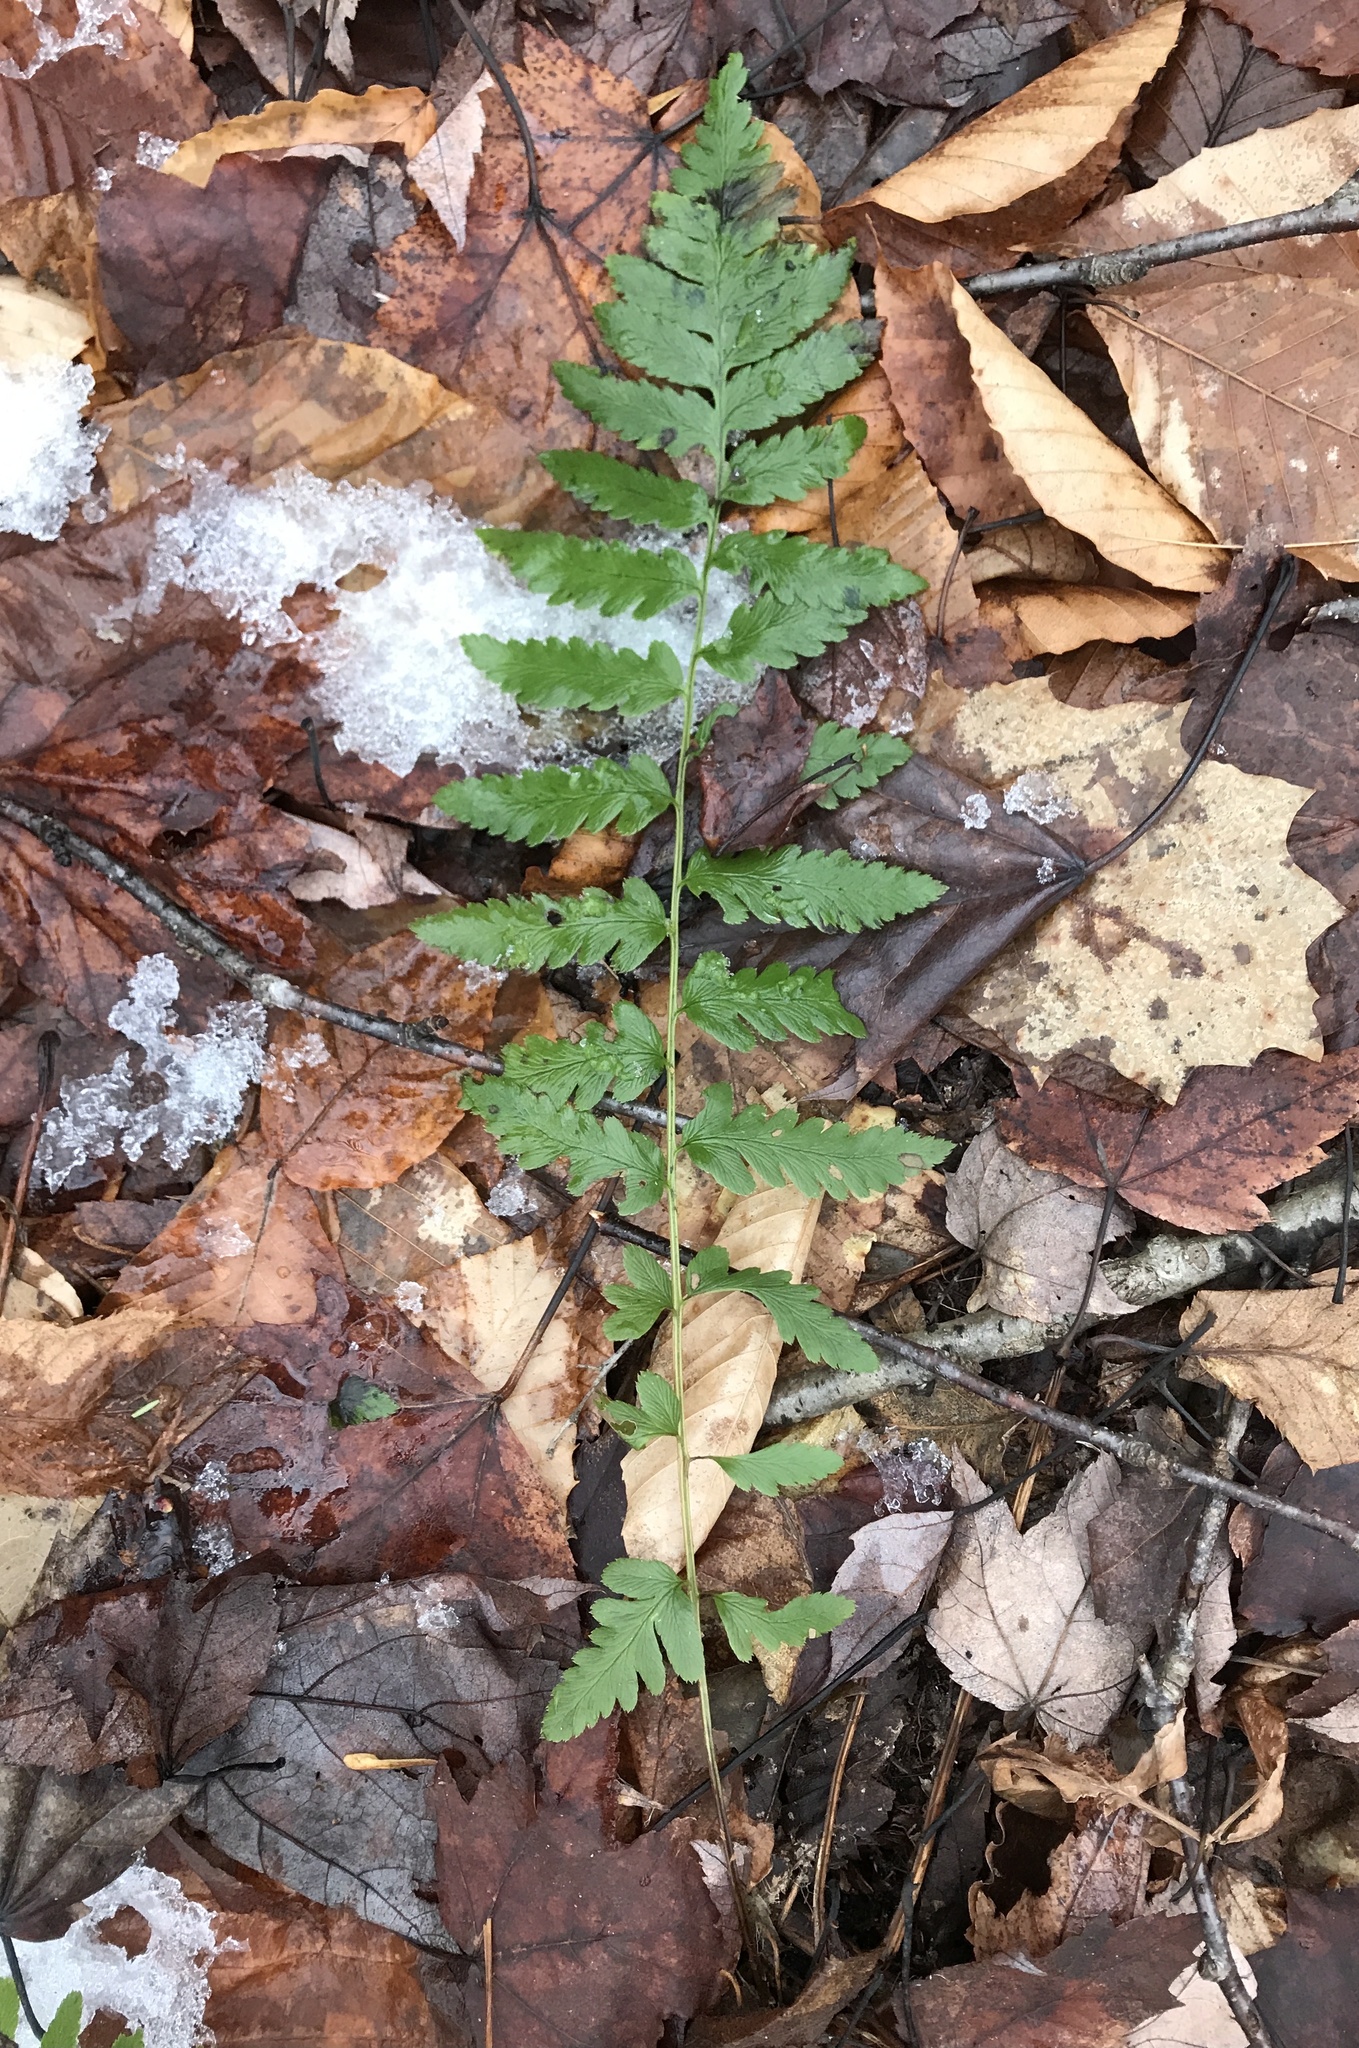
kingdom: Plantae
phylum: Tracheophyta
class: Polypodiopsida
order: Polypodiales
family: Dryopteridaceae
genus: Dryopteris
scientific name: Dryopteris cristata
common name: Crested wood fern
